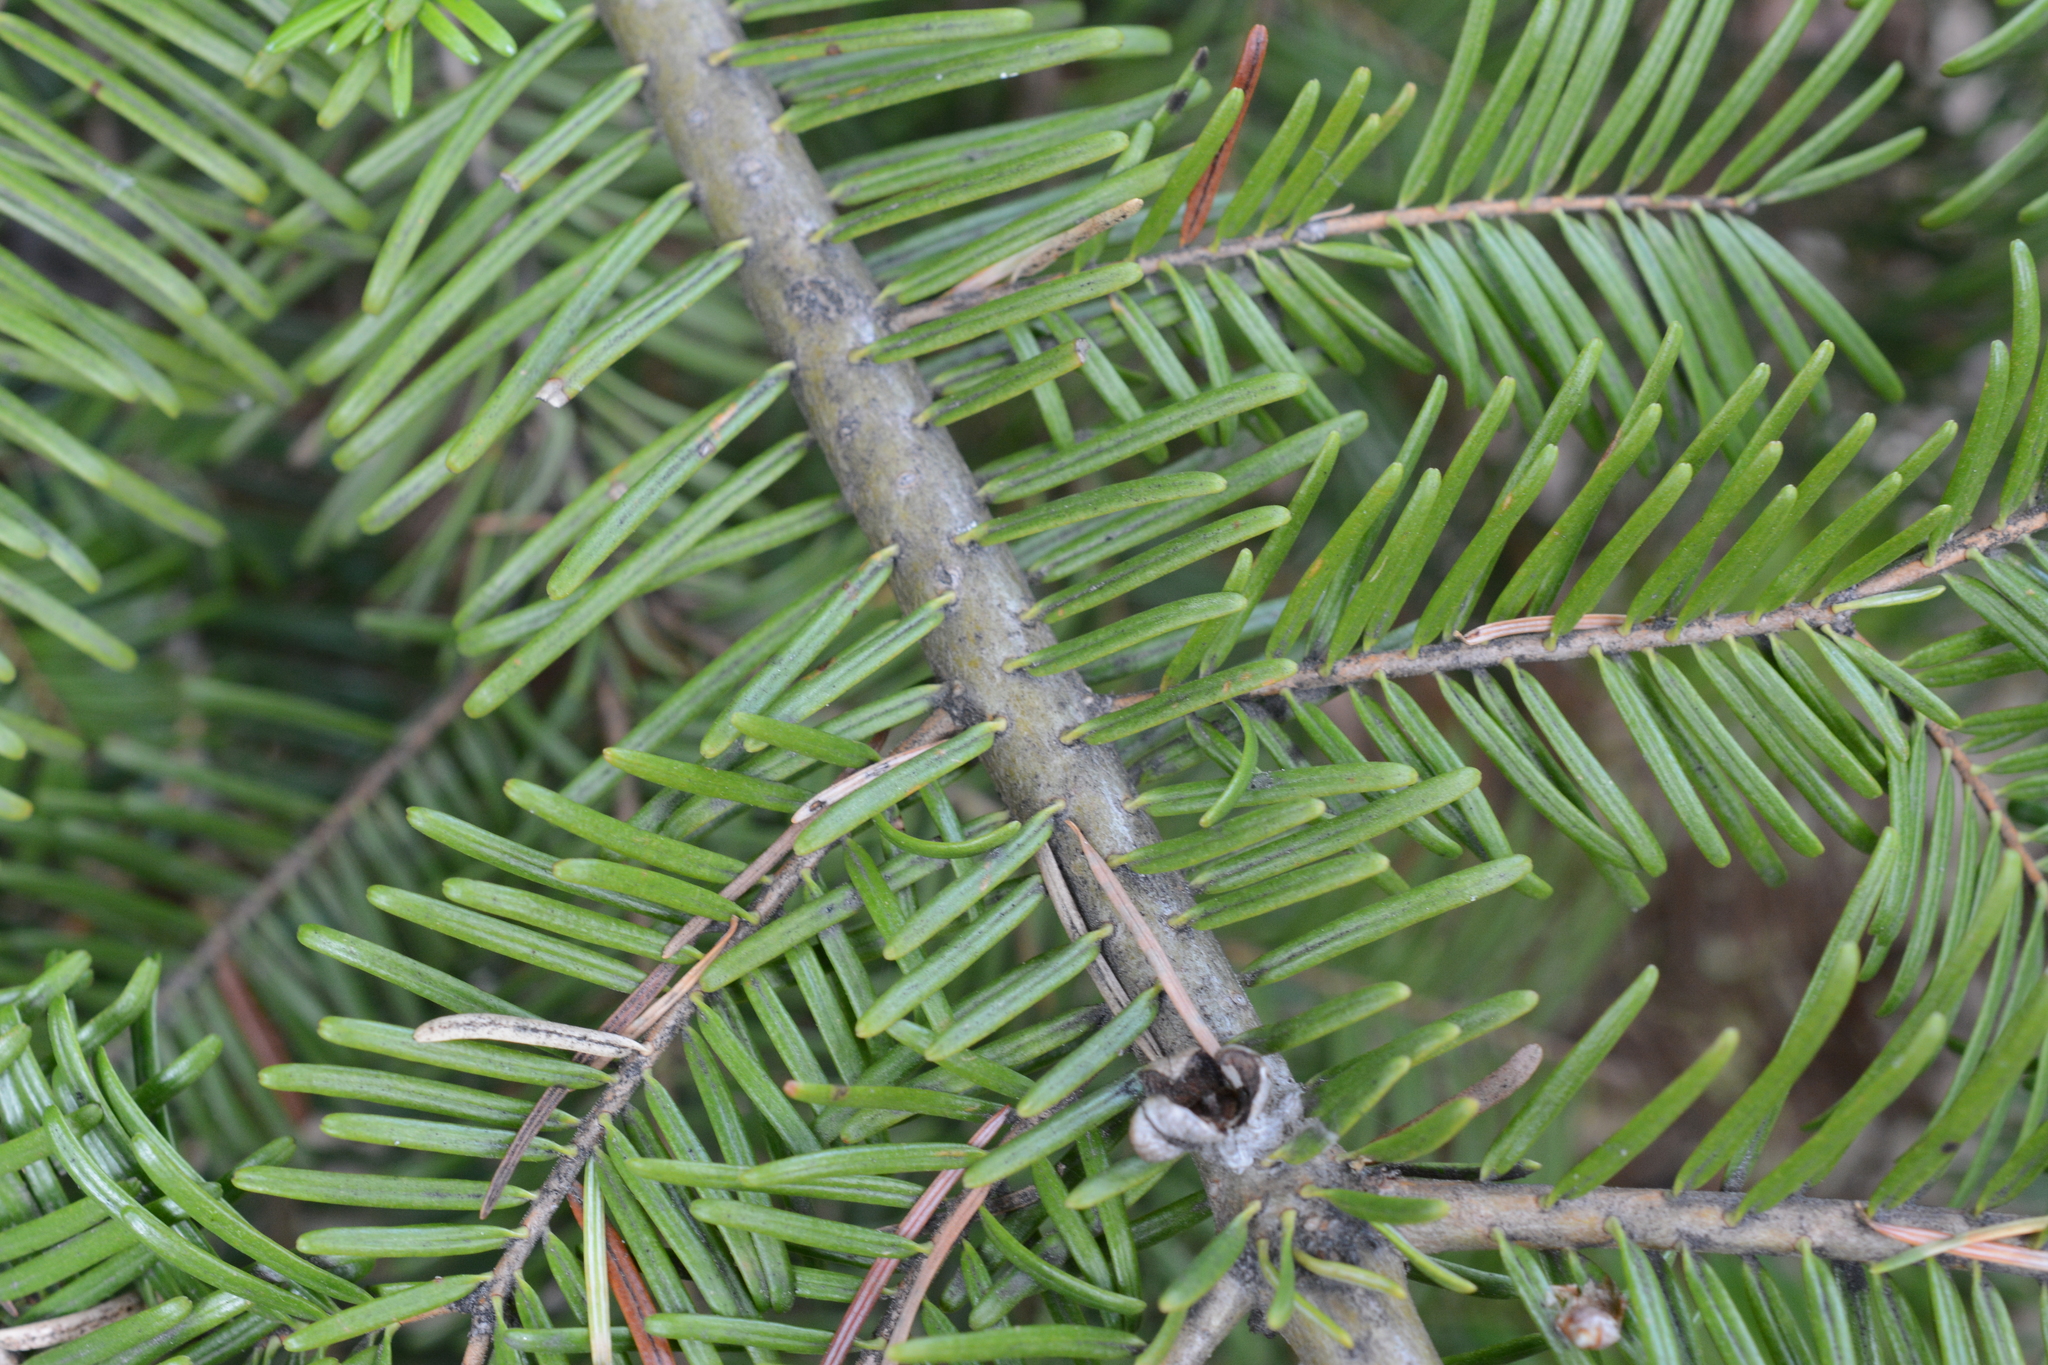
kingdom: Plantae
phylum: Tracheophyta
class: Pinopsida
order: Pinales
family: Pinaceae
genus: Abies
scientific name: Abies grandis
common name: Giant fir
